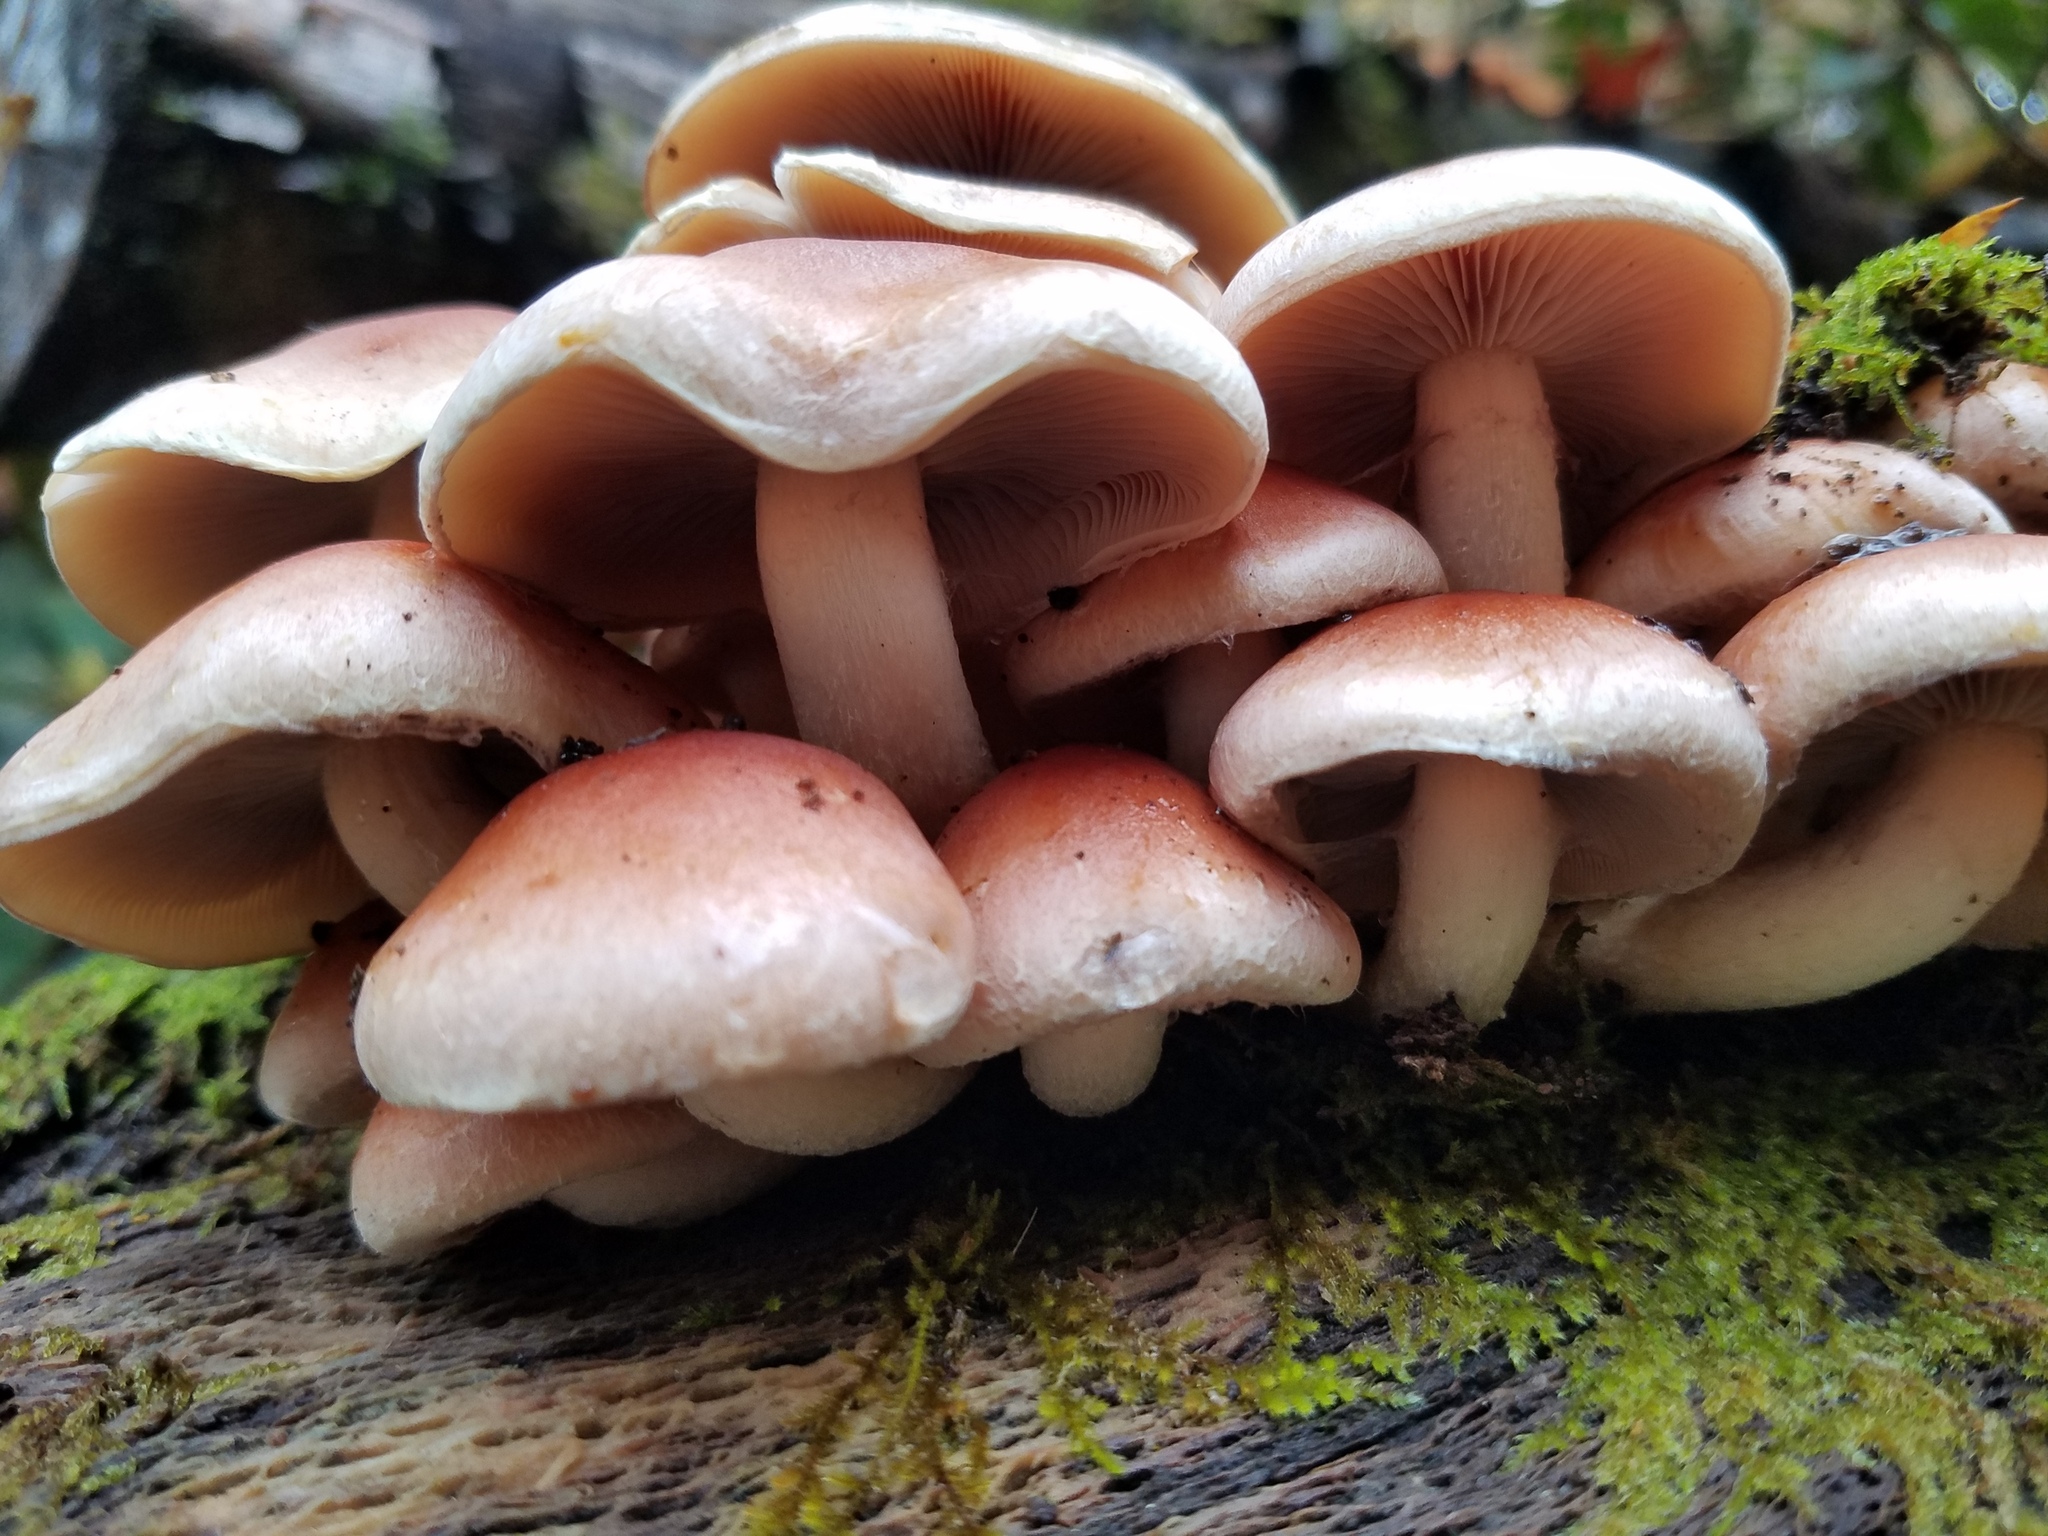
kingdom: Fungi
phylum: Basidiomycota
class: Agaricomycetes
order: Agaricales
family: Strophariaceae
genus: Hypholoma
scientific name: Hypholoma lateritium
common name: Brick caps
